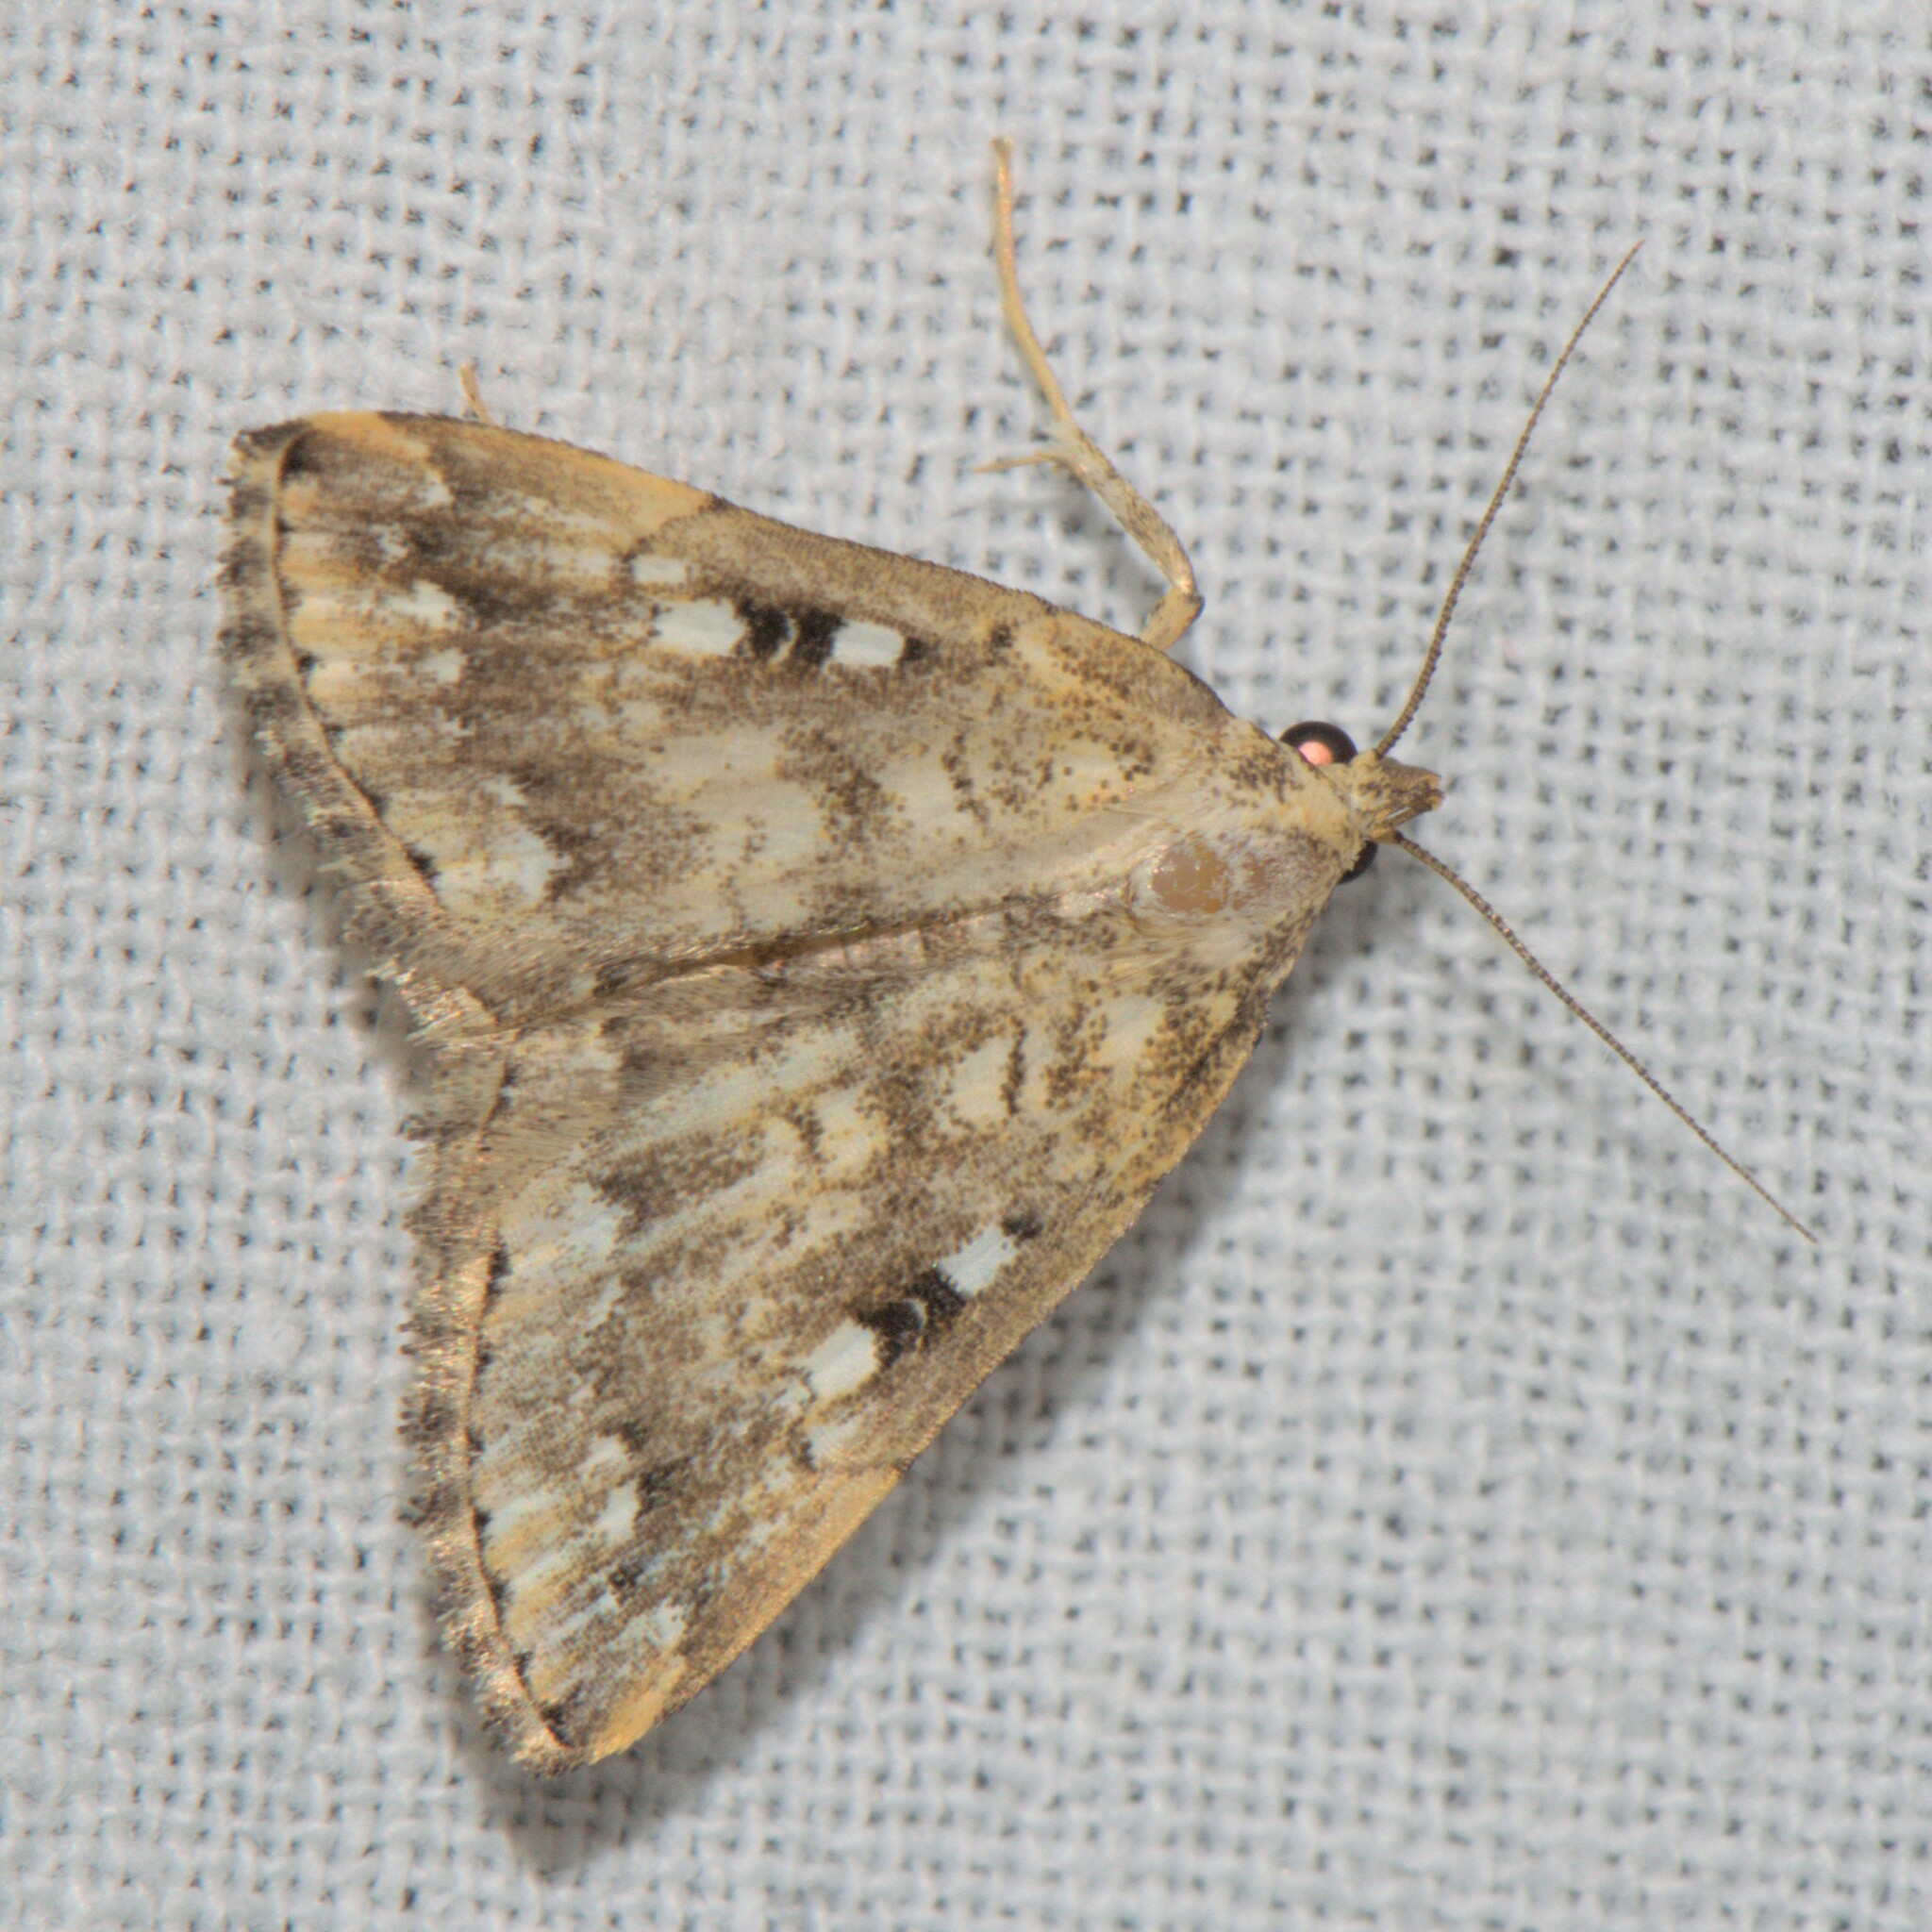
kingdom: Animalia
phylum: Arthropoda
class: Insecta
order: Lepidoptera
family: Erebidae
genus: Herminia
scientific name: Herminia
